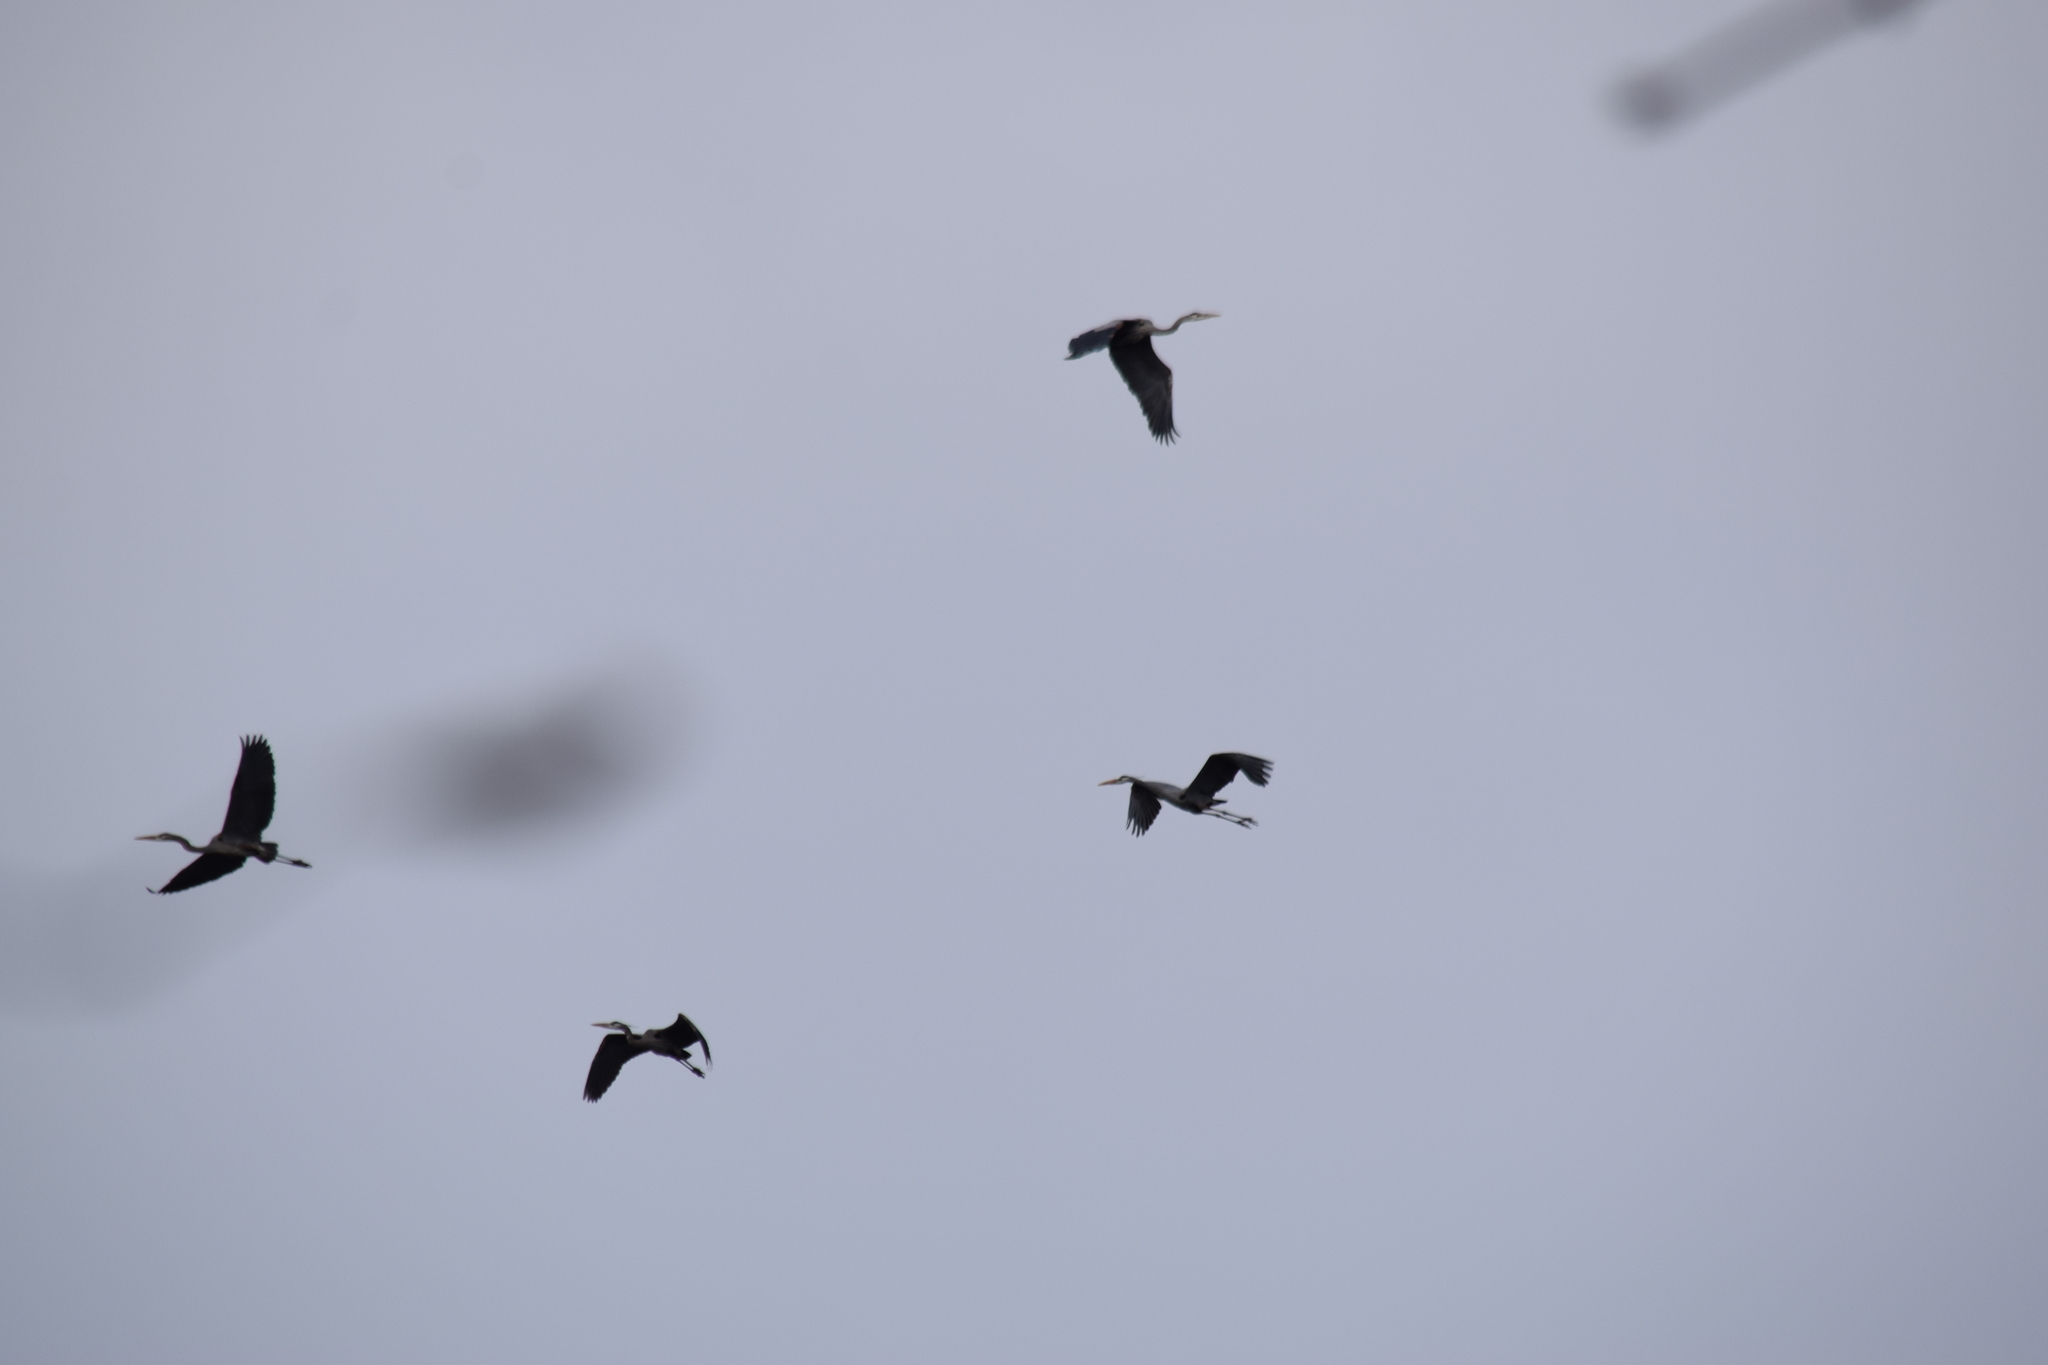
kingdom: Animalia
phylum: Chordata
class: Aves
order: Pelecaniformes
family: Ardeidae
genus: Ardea
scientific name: Ardea herodias
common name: Great blue heron
